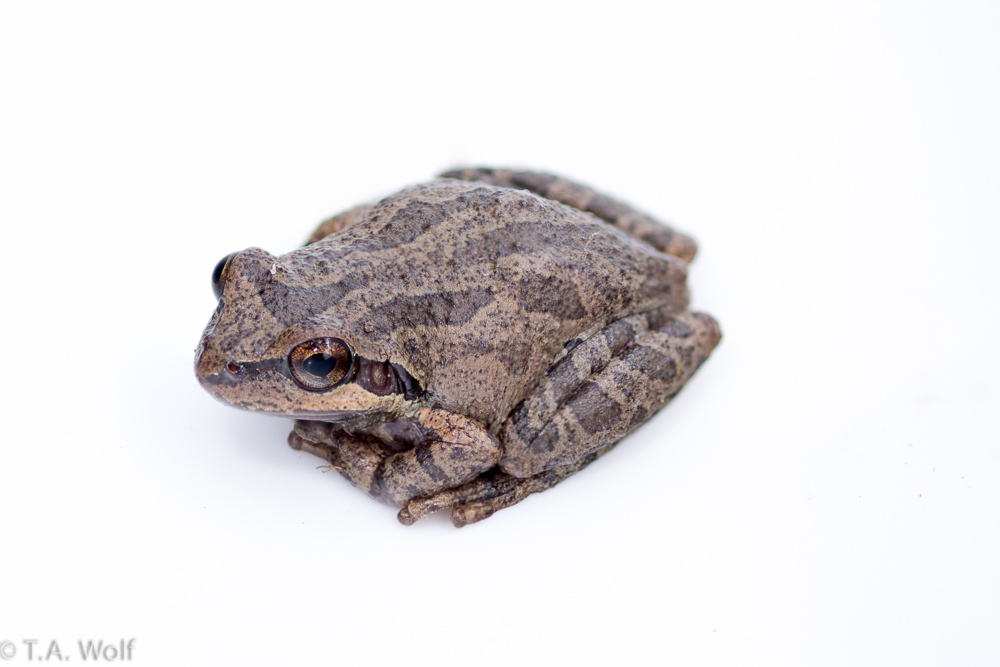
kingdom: Animalia
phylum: Chordata
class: Amphibia
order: Anura
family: Hylidae
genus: Pseudacris
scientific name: Pseudacris regilla
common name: Pacific chorus frog
